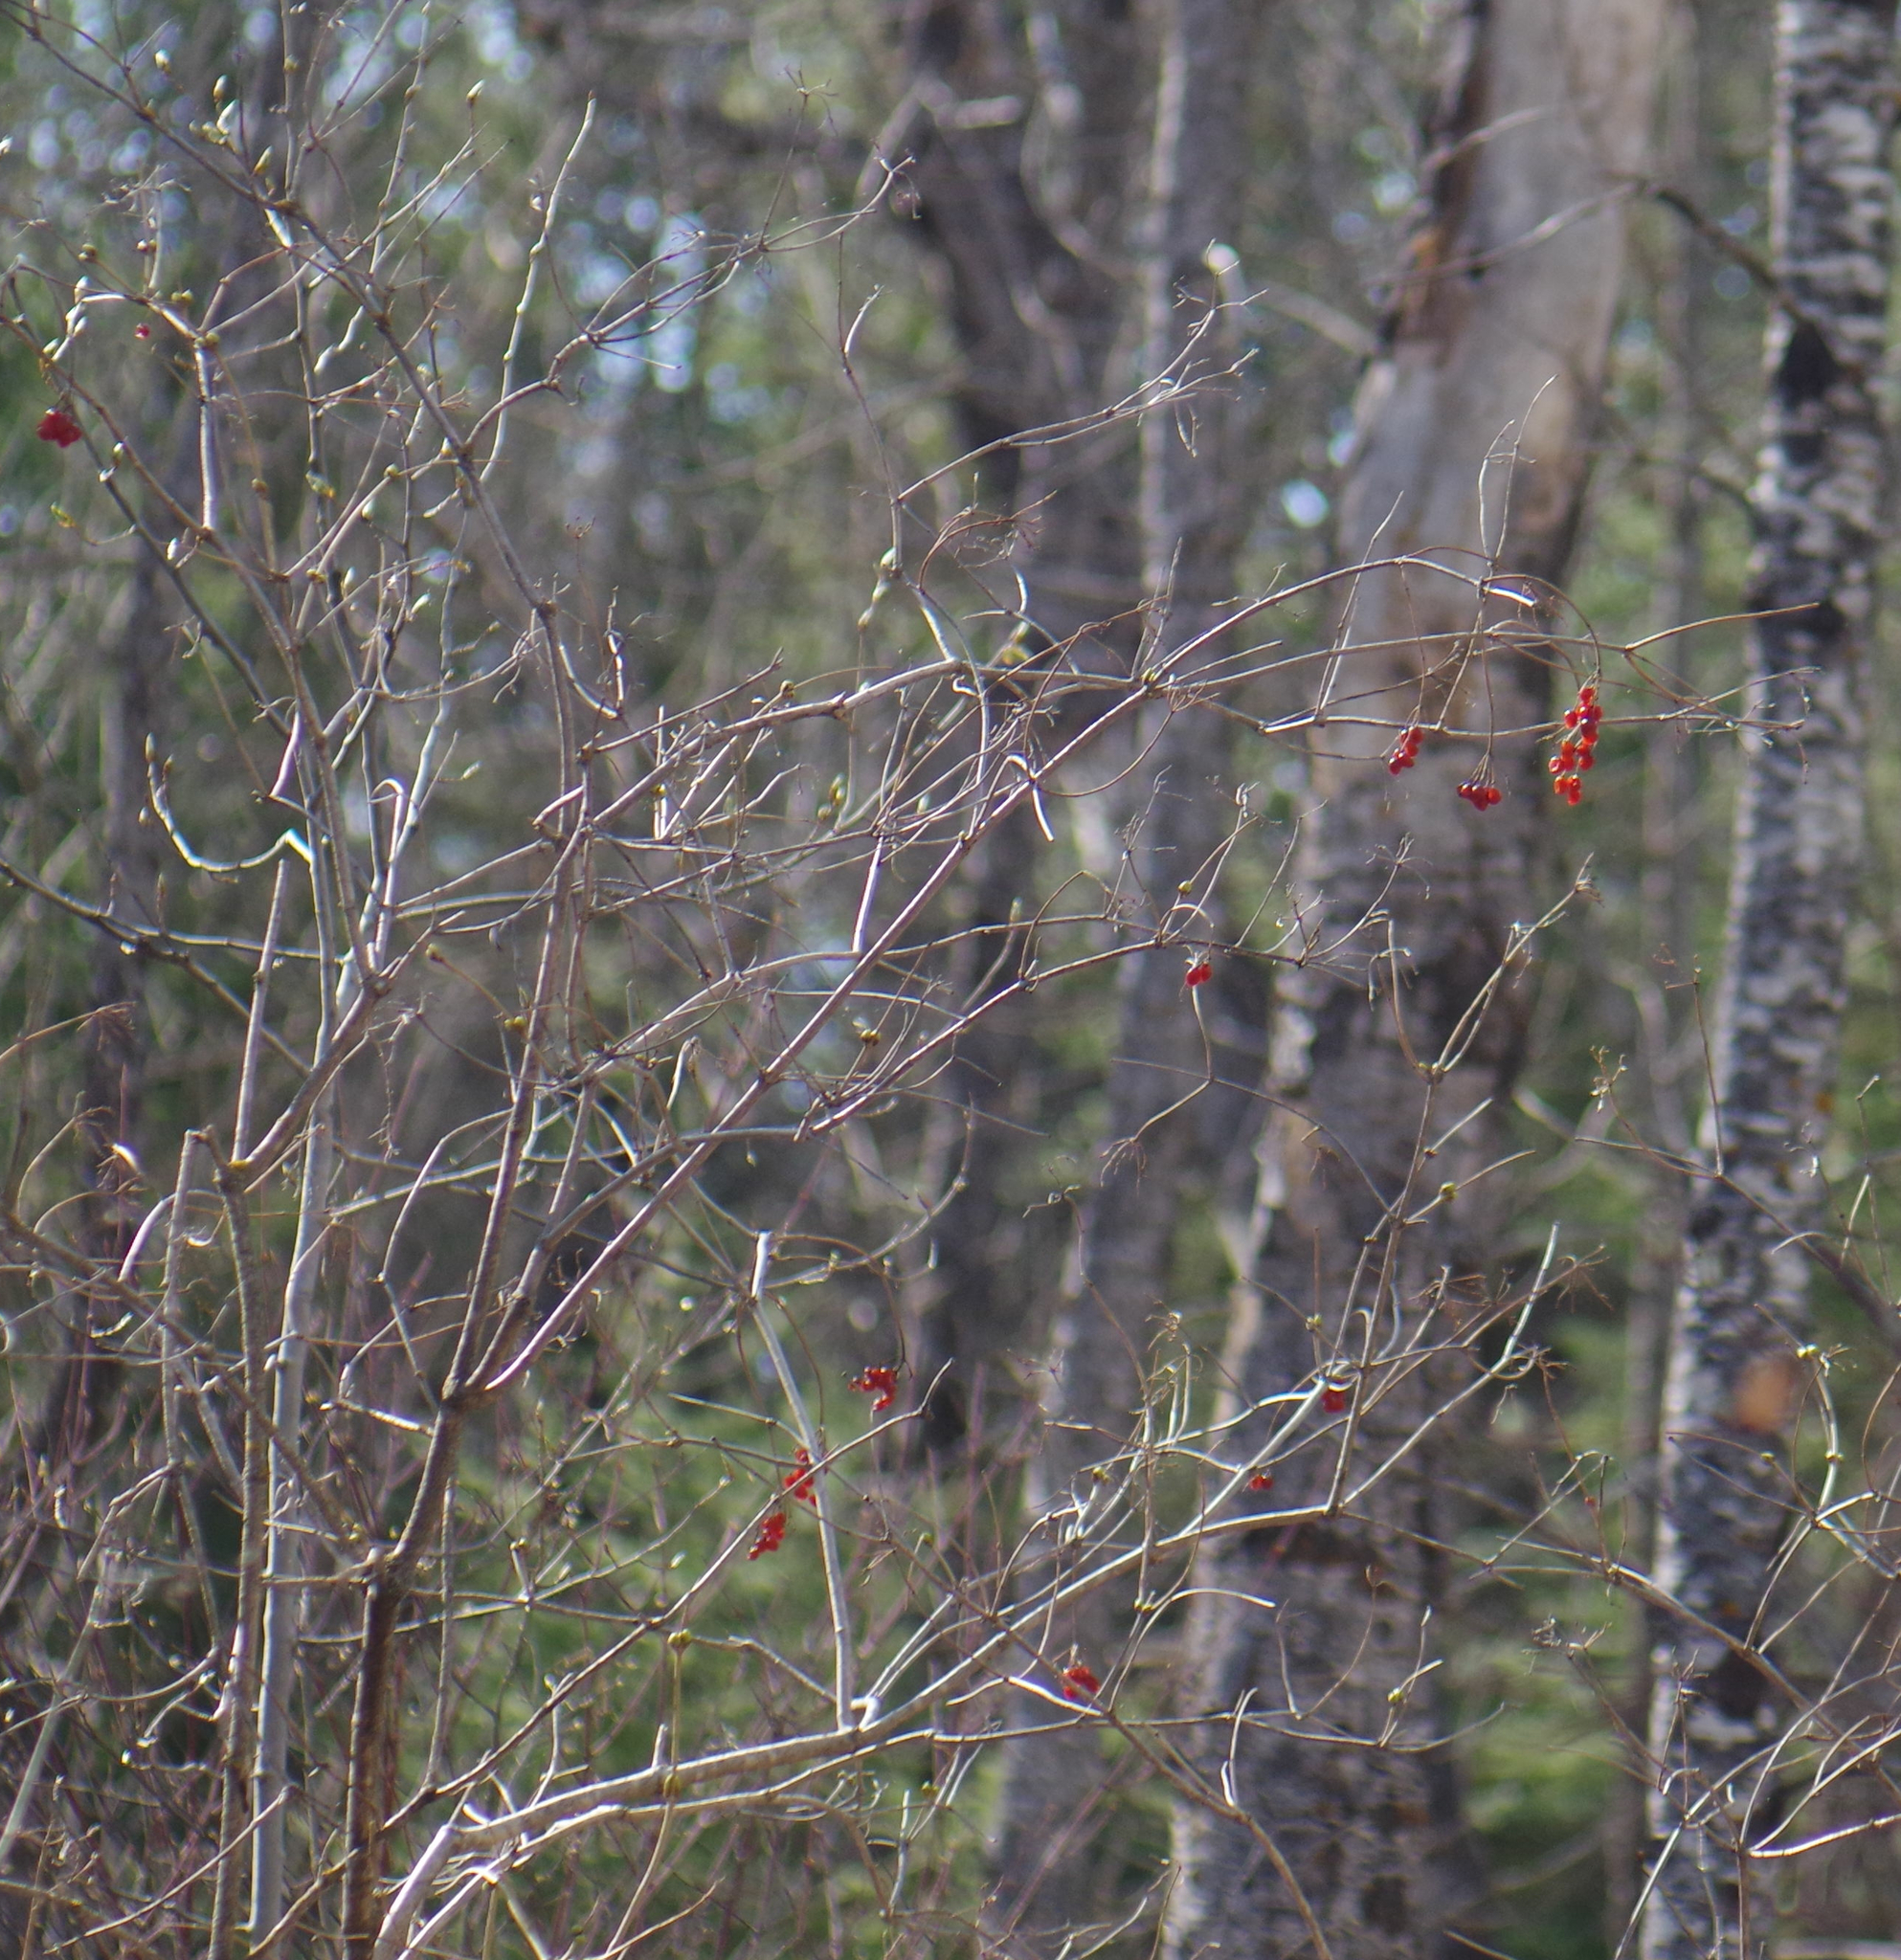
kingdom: Plantae
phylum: Tracheophyta
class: Magnoliopsida
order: Dipsacales
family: Viburnaceae
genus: Viburnum
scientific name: Viburnum opulus
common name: Guelder-rose
